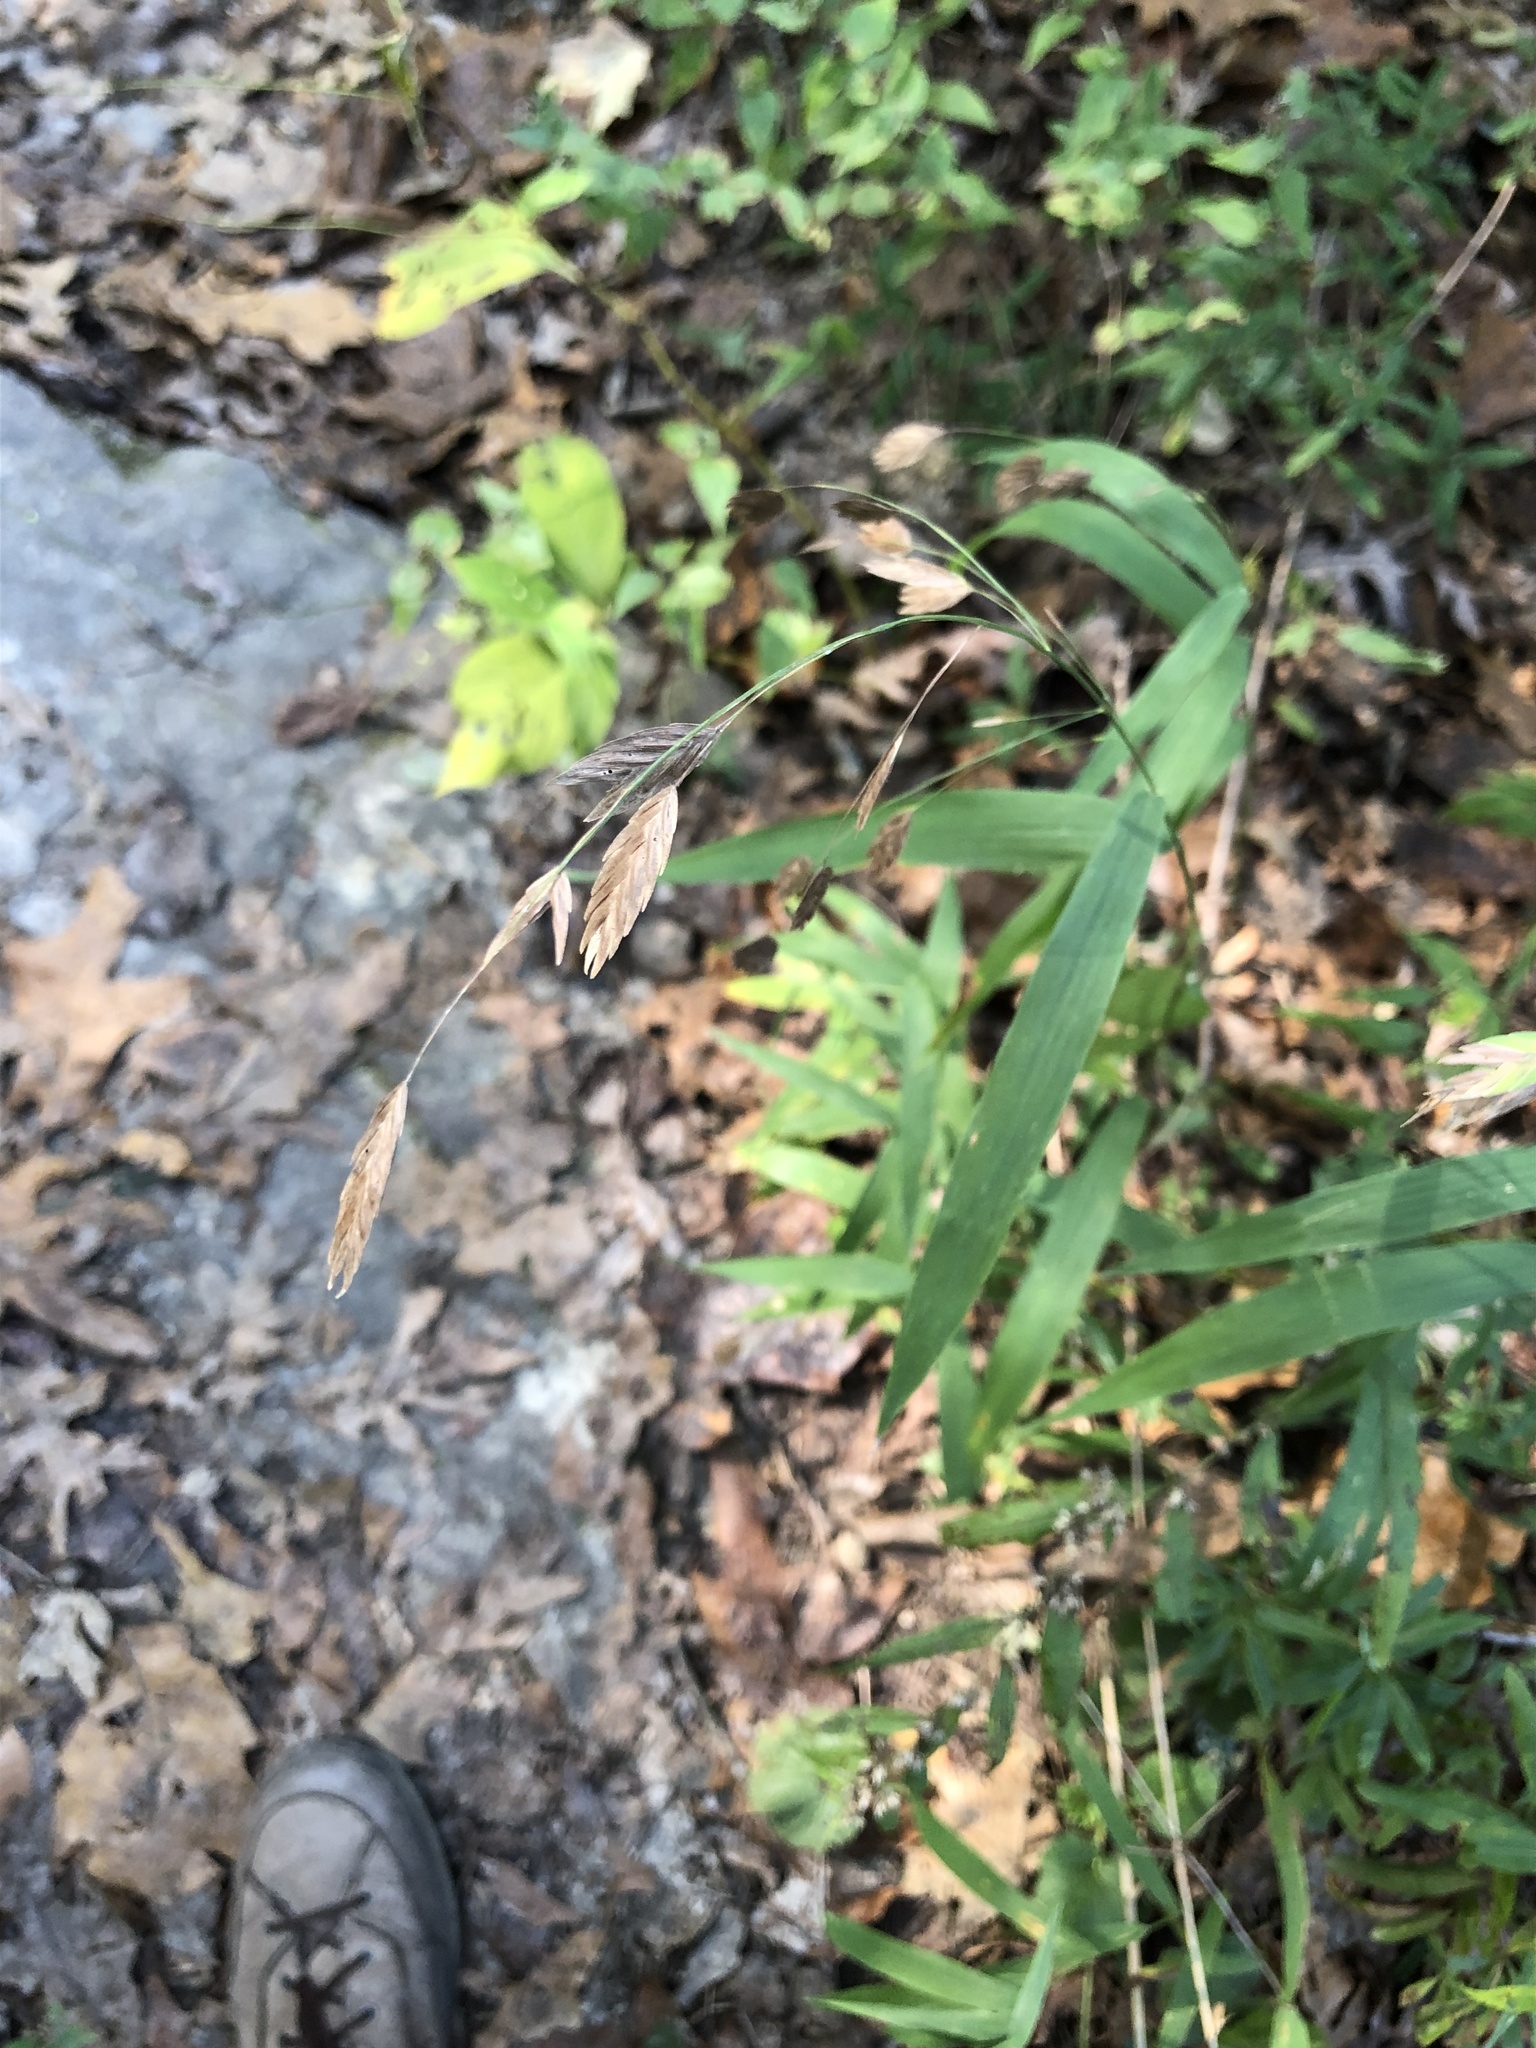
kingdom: Plantae
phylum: Tracheophyta
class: Liliopsida
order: Poales
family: Poaceae
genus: Chasmanthium
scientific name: Chasmanthium latifolium
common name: Broad-leaved chasmanthium
